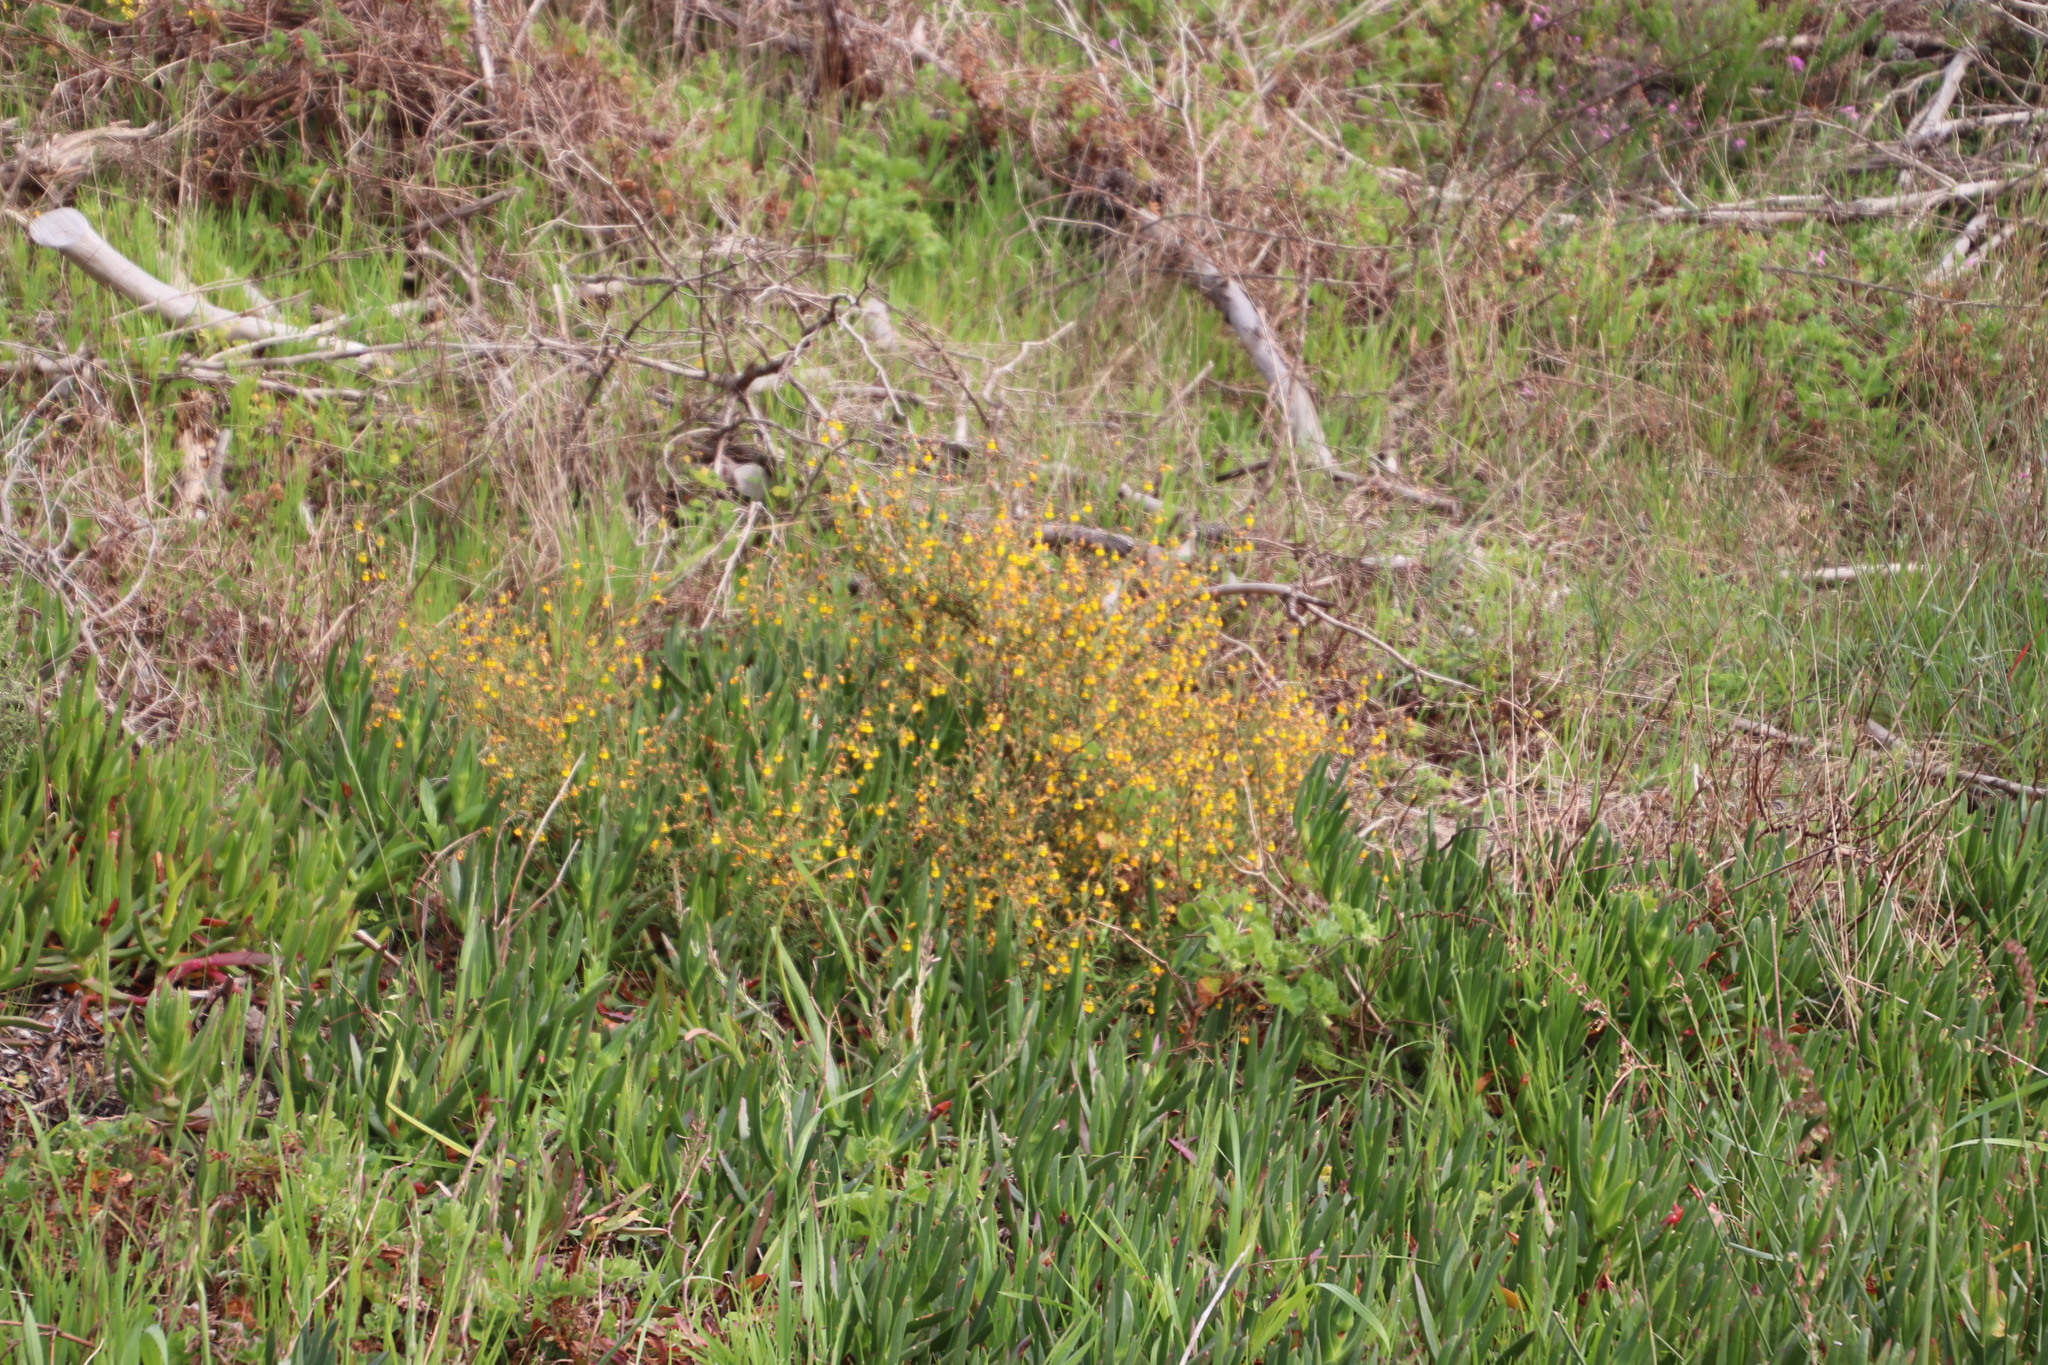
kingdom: Plantae
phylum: Tracheophyta
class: Magnoliopsida
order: Malvales
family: Malvaceae
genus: Hermannia
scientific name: Hermannia multiflora
